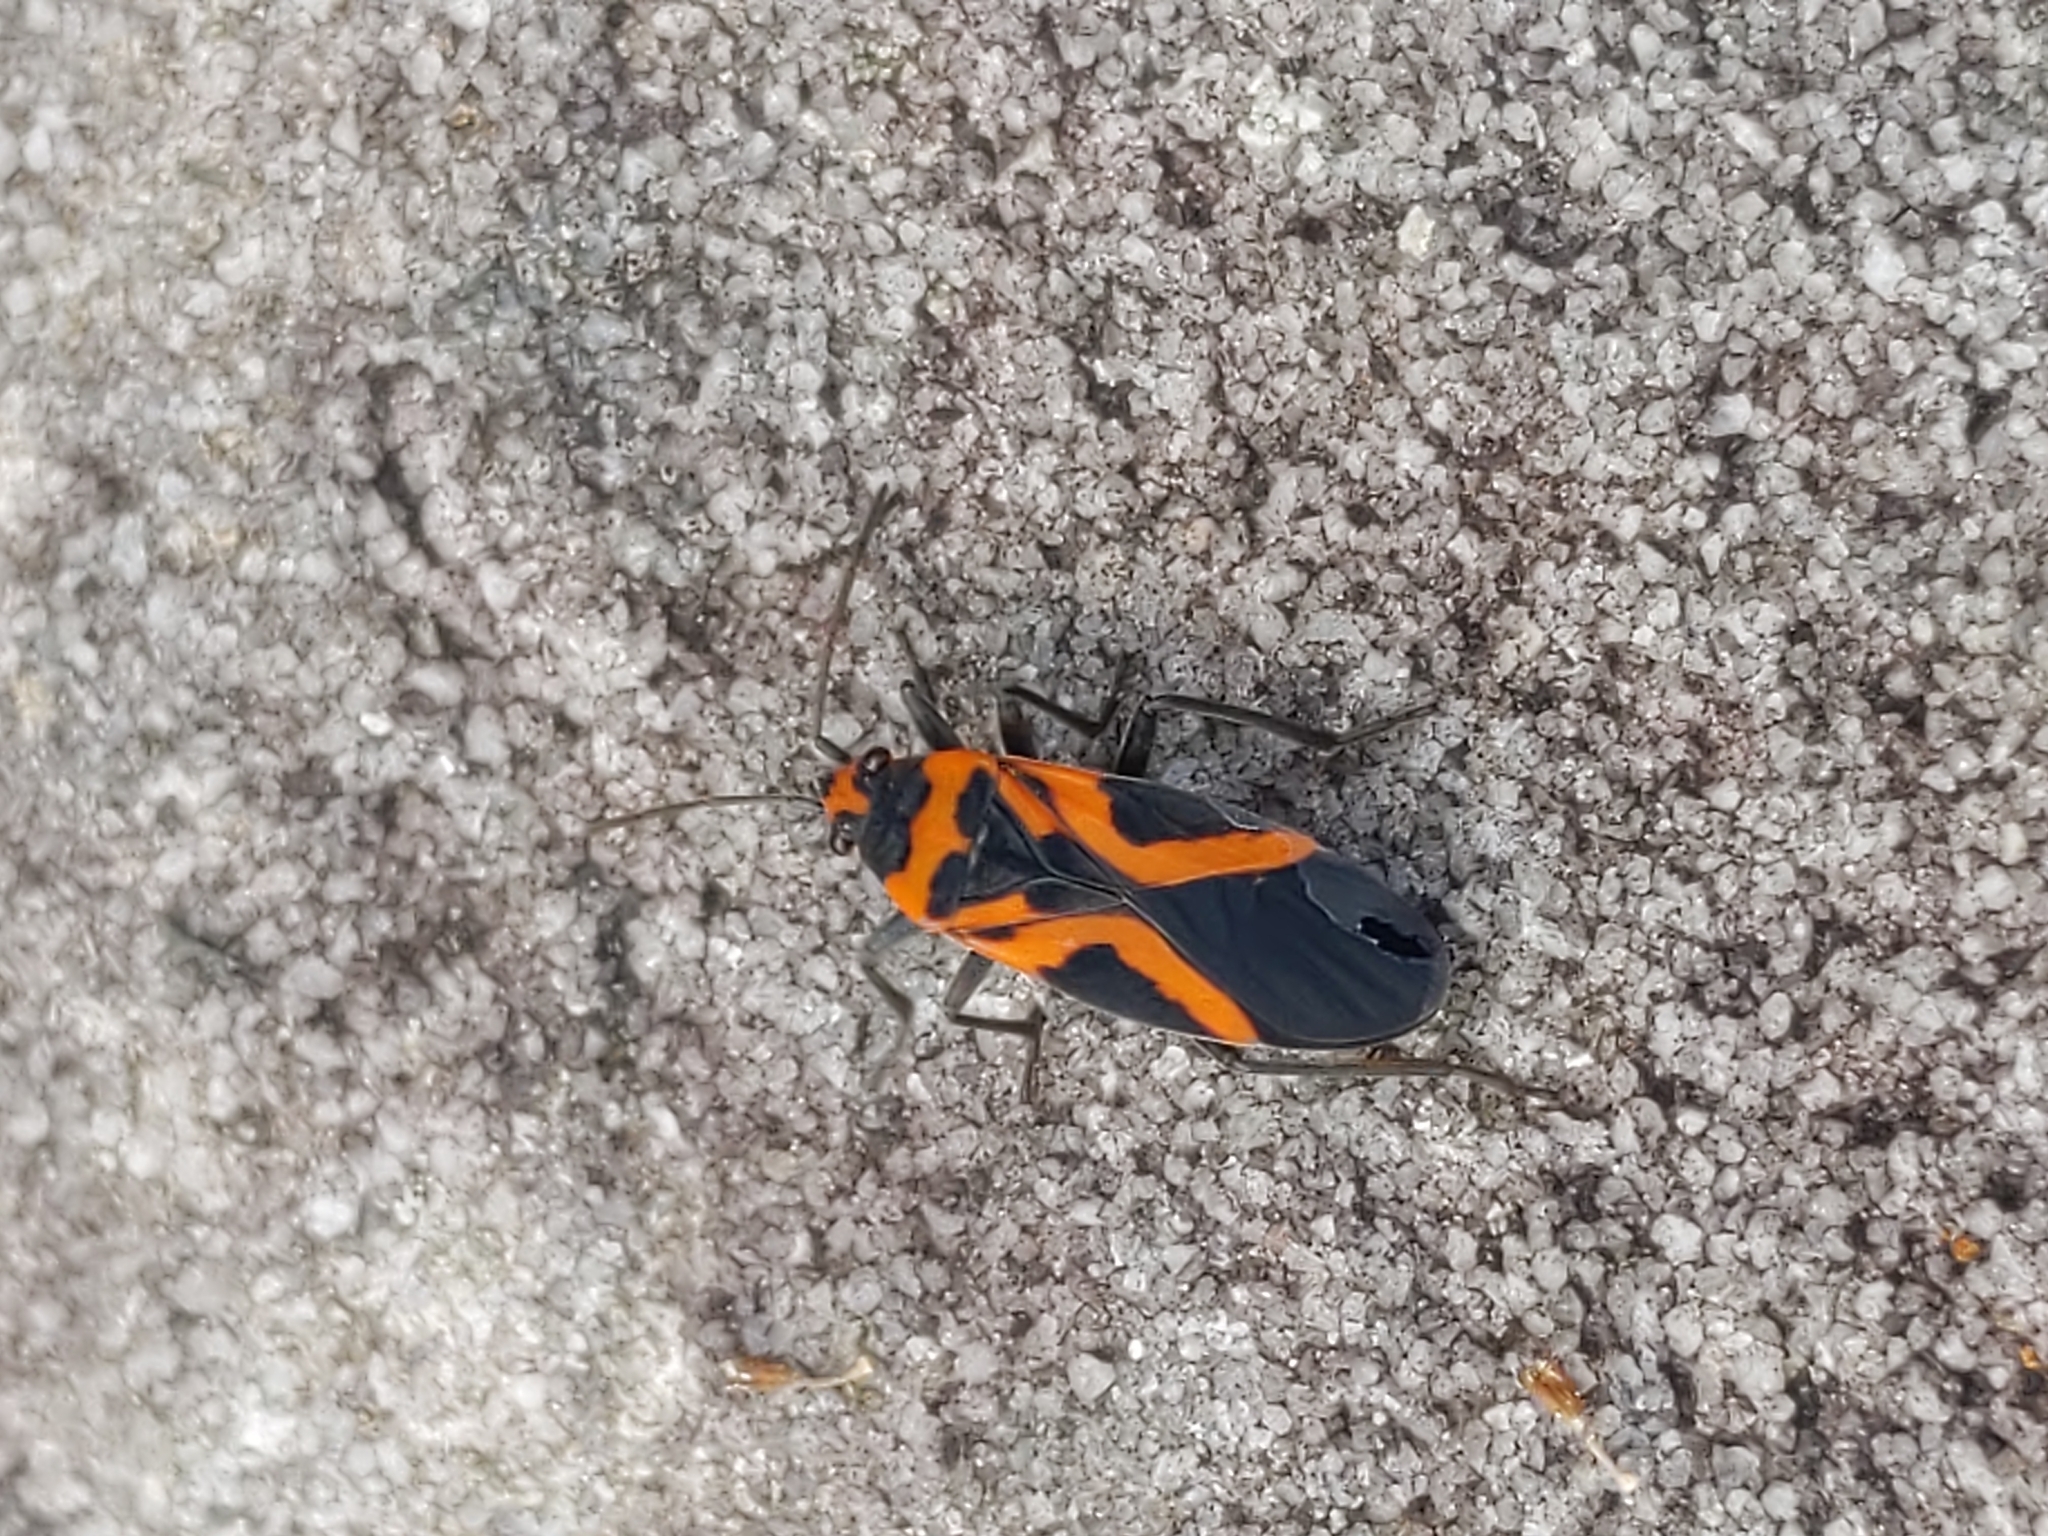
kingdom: Animalia
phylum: Arthropoda
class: Insecta
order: Hemiptera
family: Lygaeidae
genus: Lygaeus
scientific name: Lygaeus turcicus
